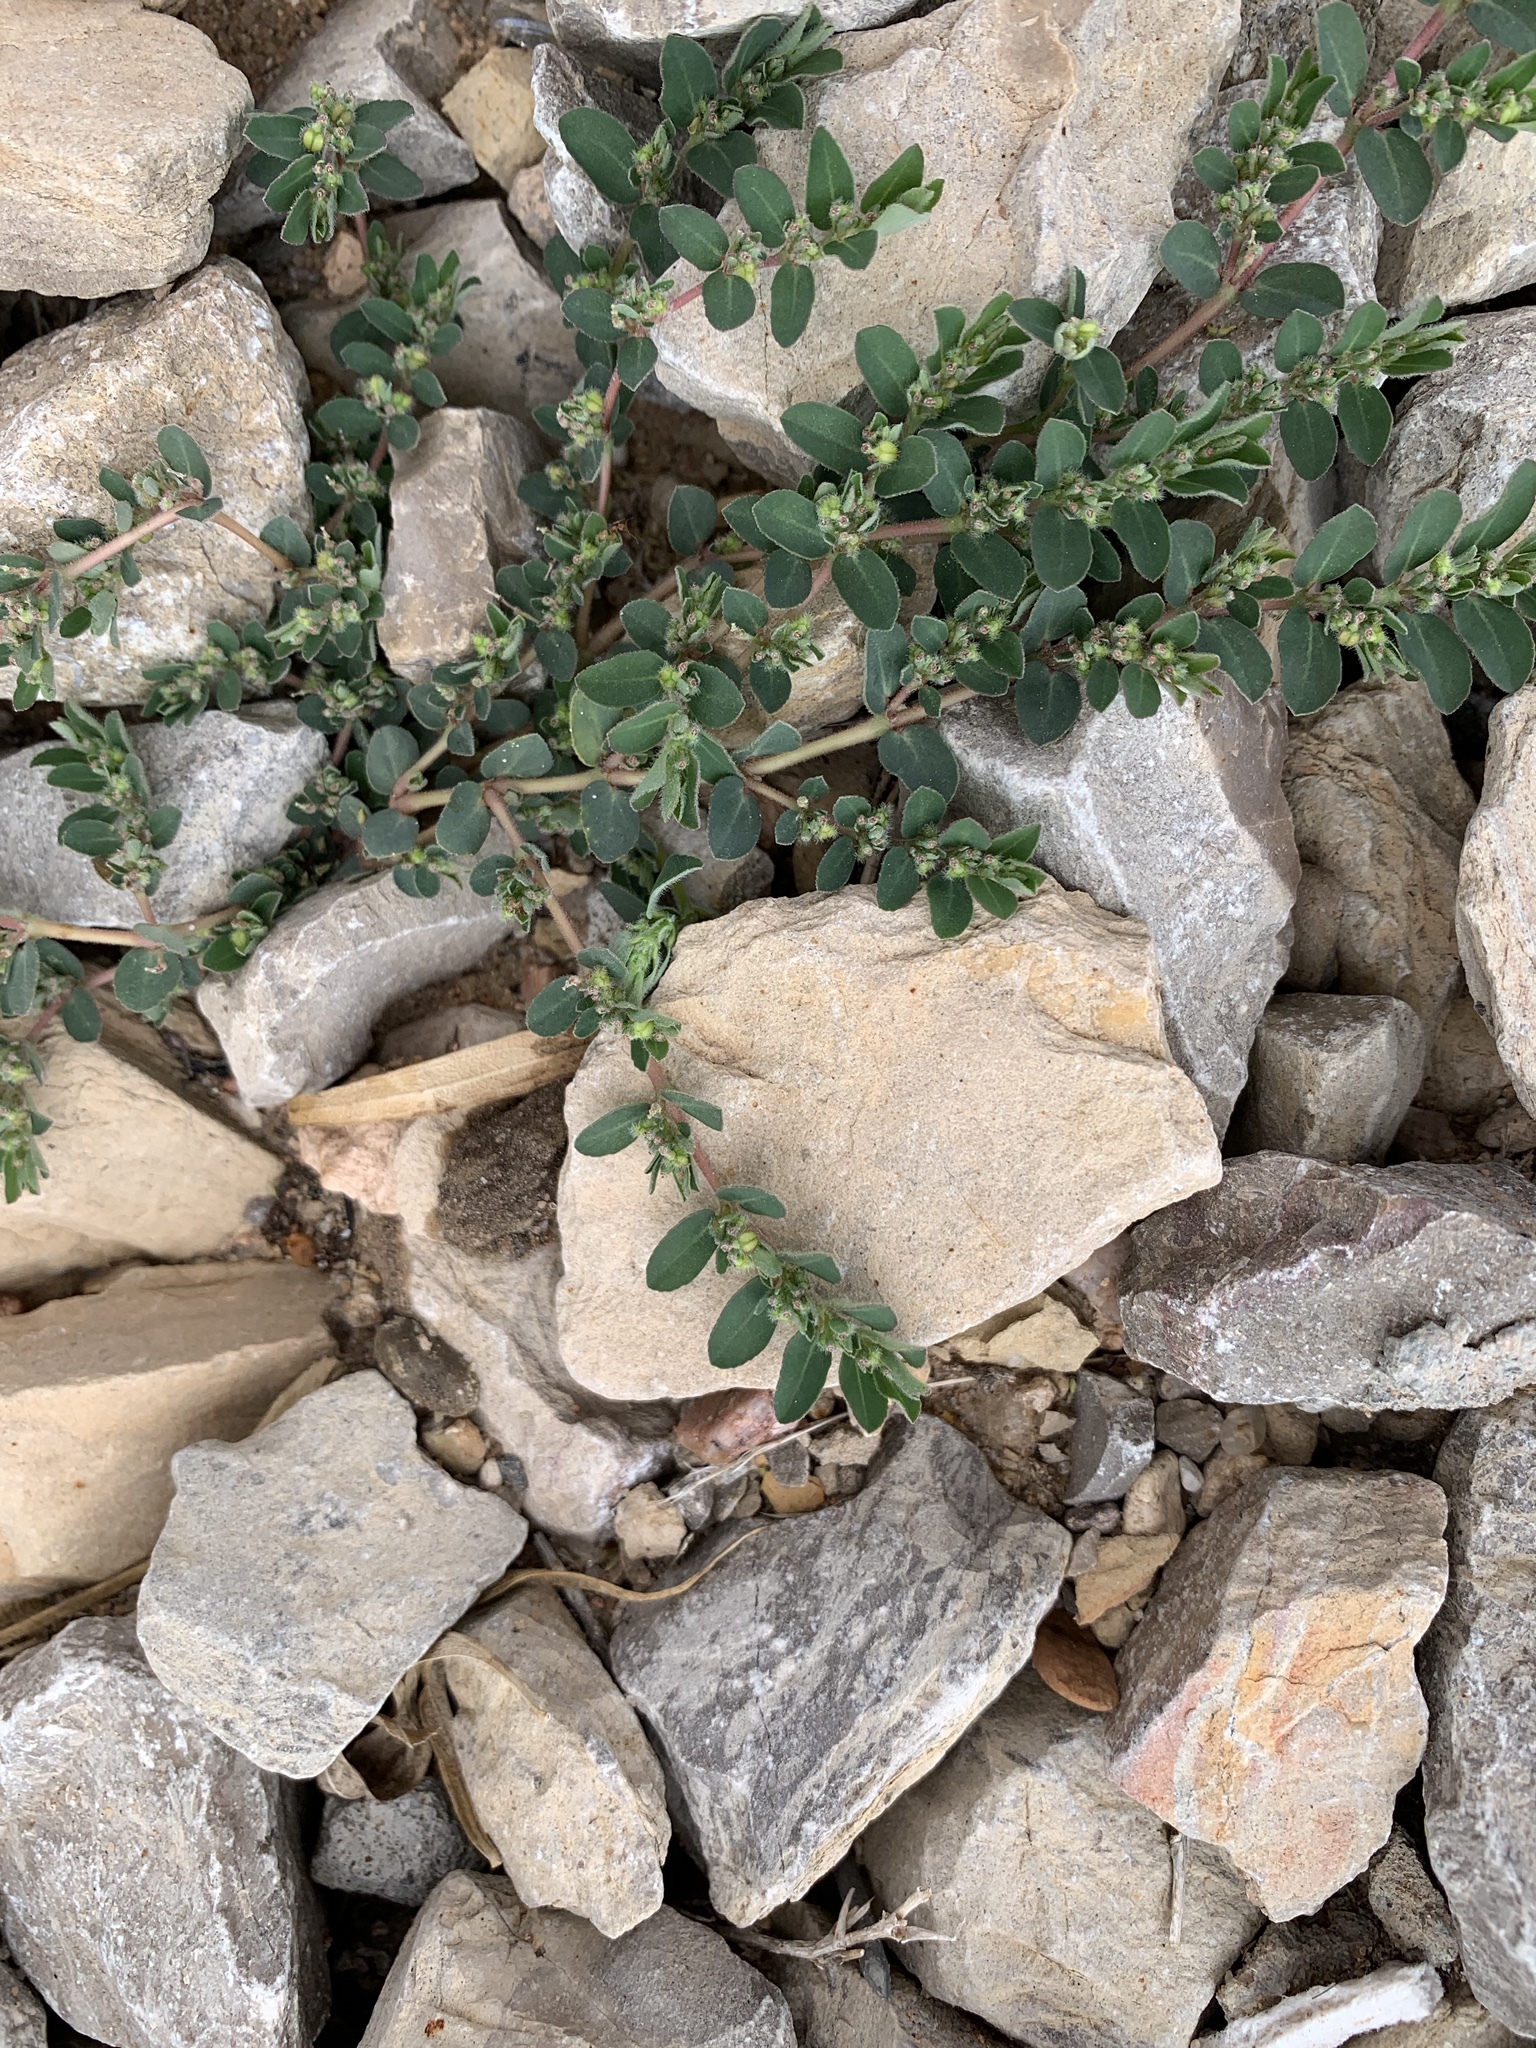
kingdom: Plantae
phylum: Tracheophyta
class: Magnoliopsida
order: Malpighiales
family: Euphorbiaceae
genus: Euphorbia
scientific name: Euphorbia prostrata
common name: Prostrate sandmat
